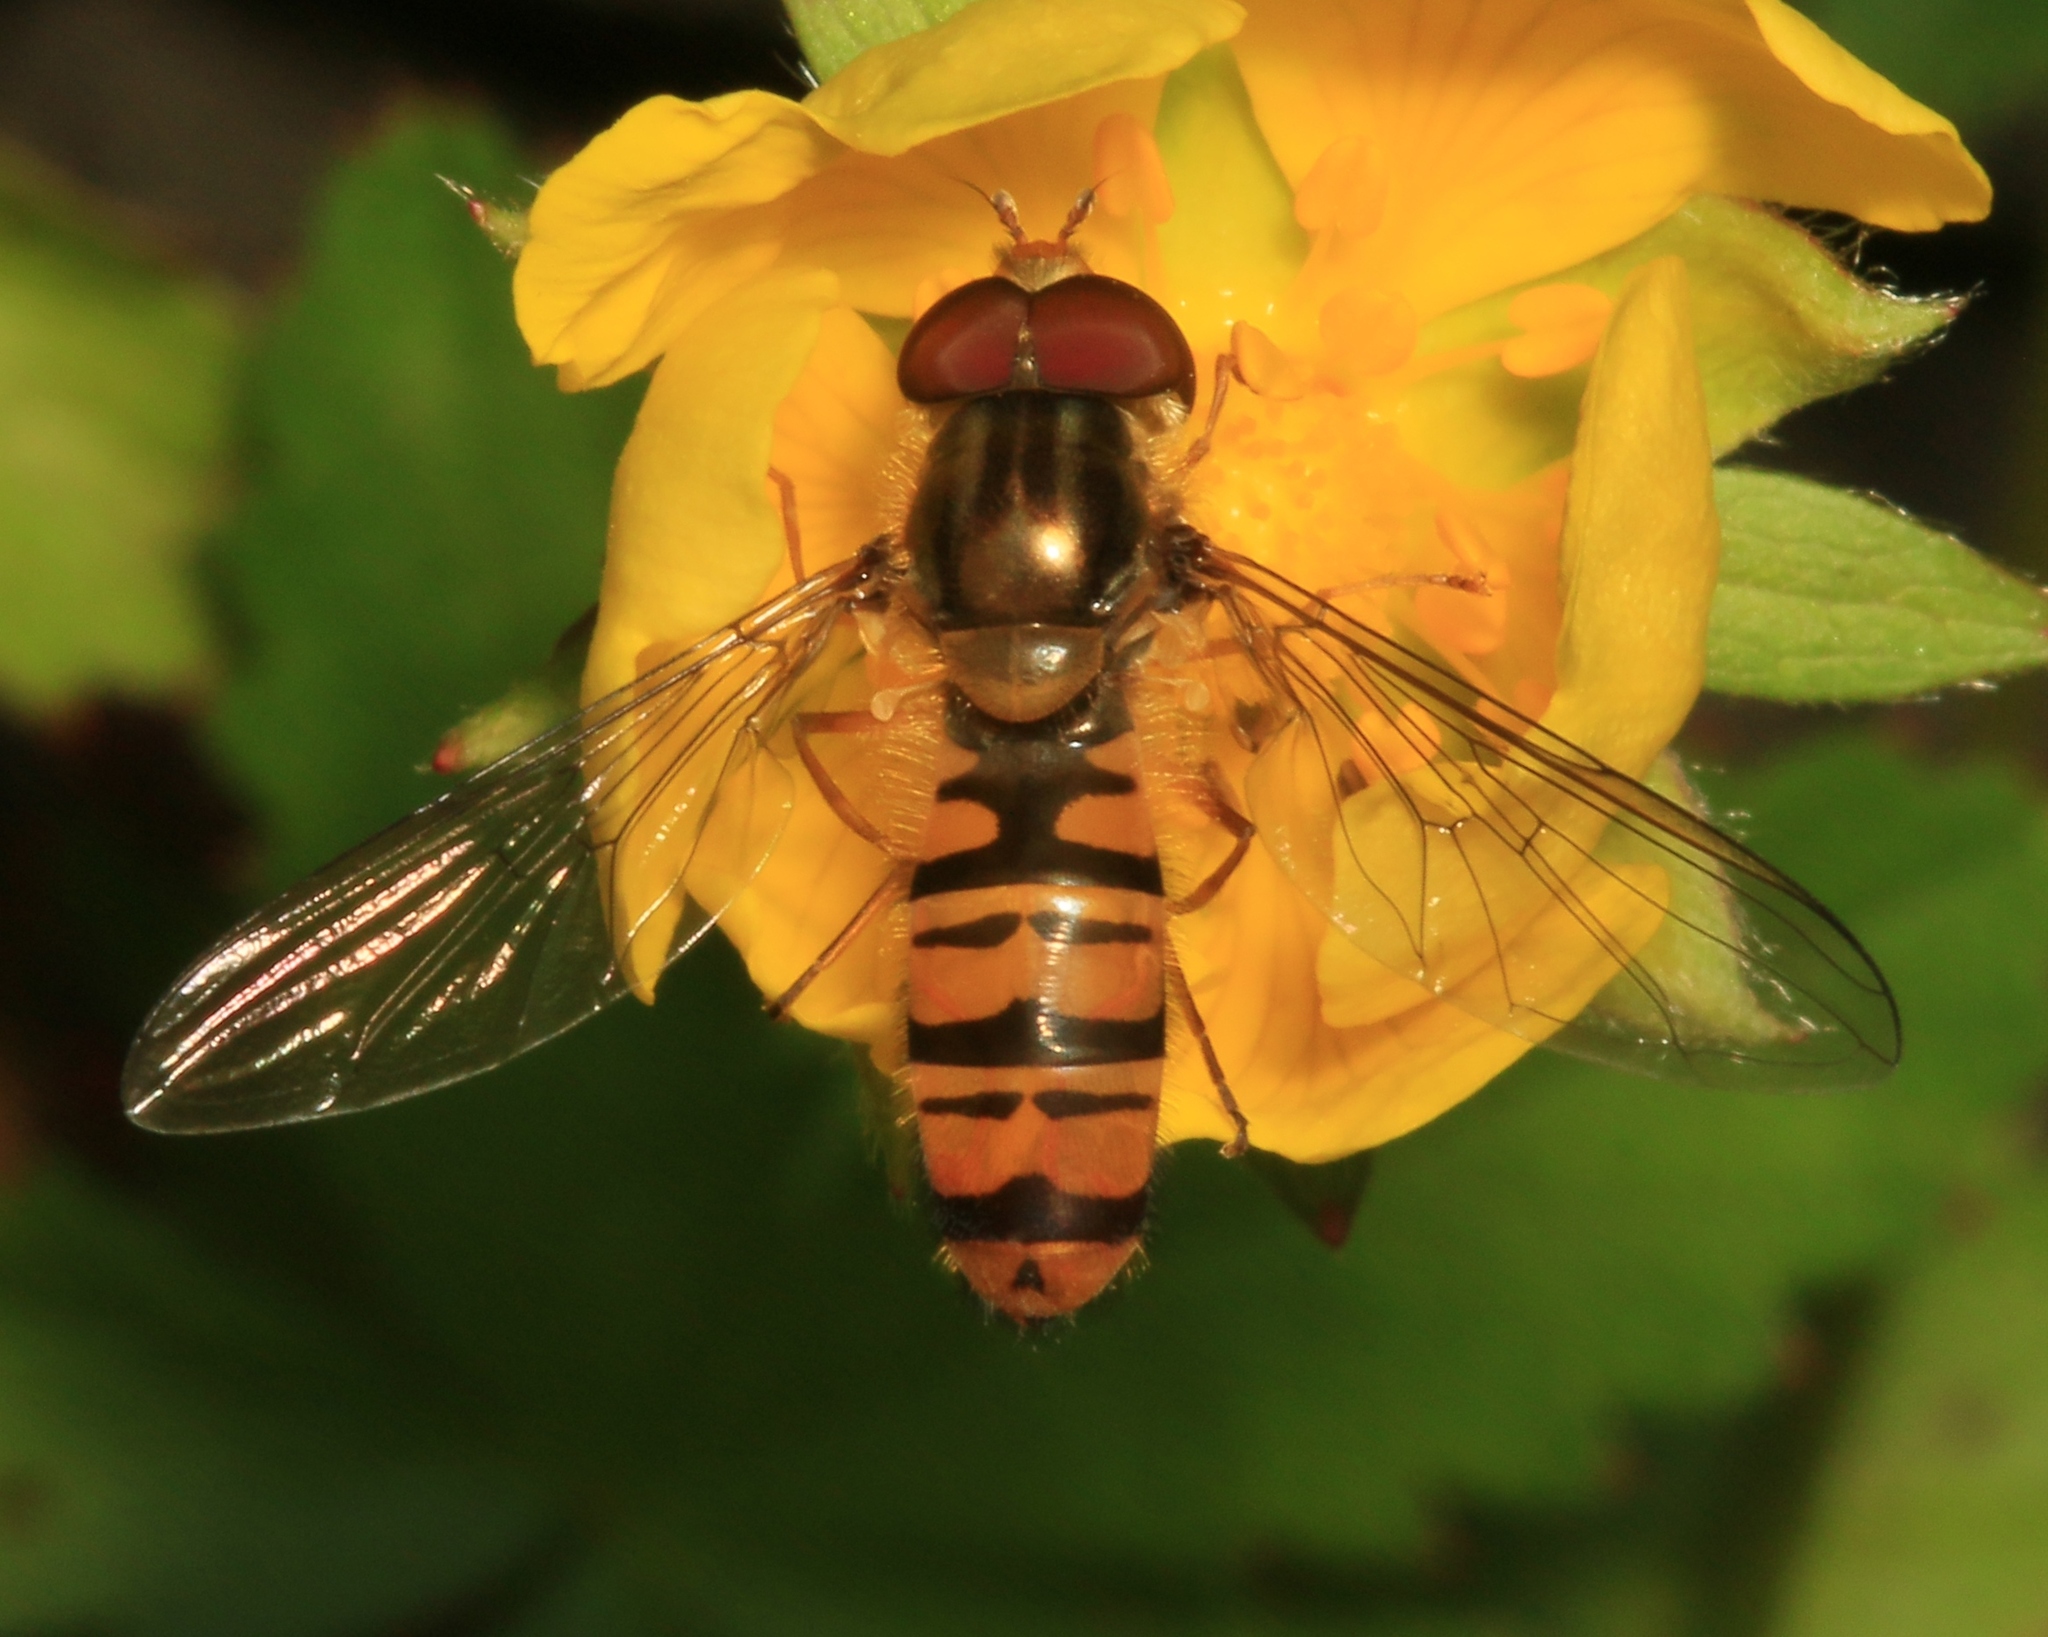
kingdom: Animalia
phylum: Arthropoda
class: Insecta
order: Diptera
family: Syrphidae
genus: Episyrphus
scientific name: Episyrphus balteatus
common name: Marmalade hoverfly
